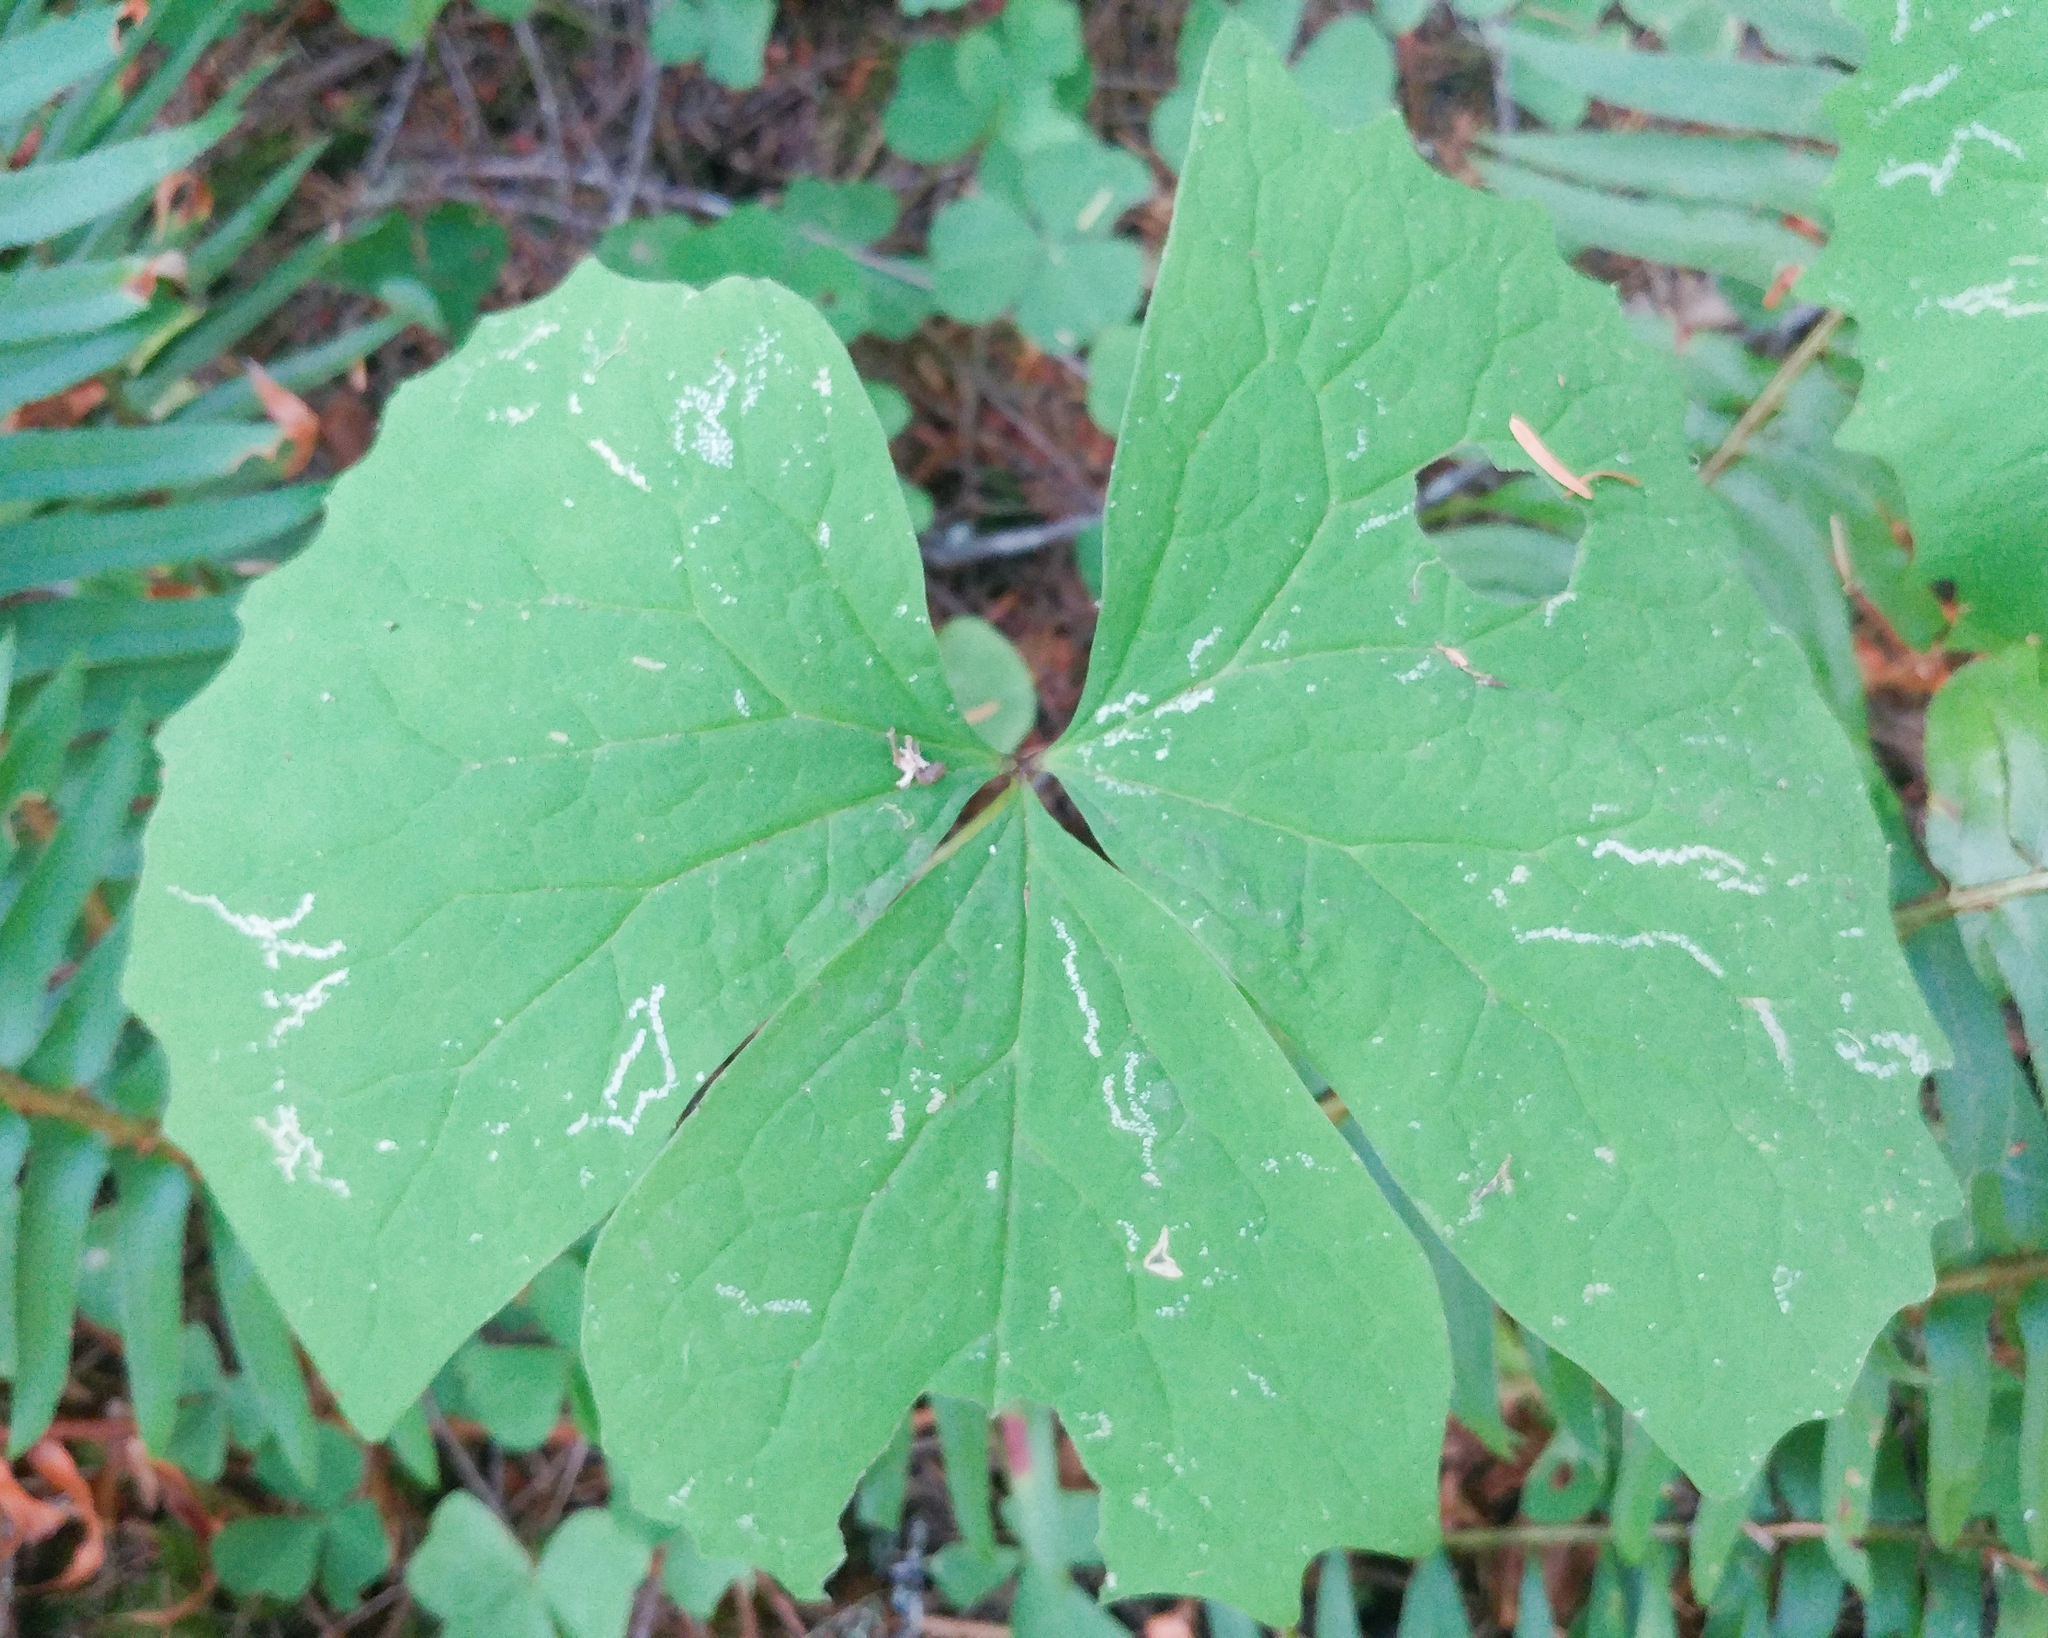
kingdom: Plantae
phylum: Tracheophyta
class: Magnoliopsida
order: Ranunculales
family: Berberidaceae
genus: Achlys
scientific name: Achlys triphylla
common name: Vanilla-leaf
